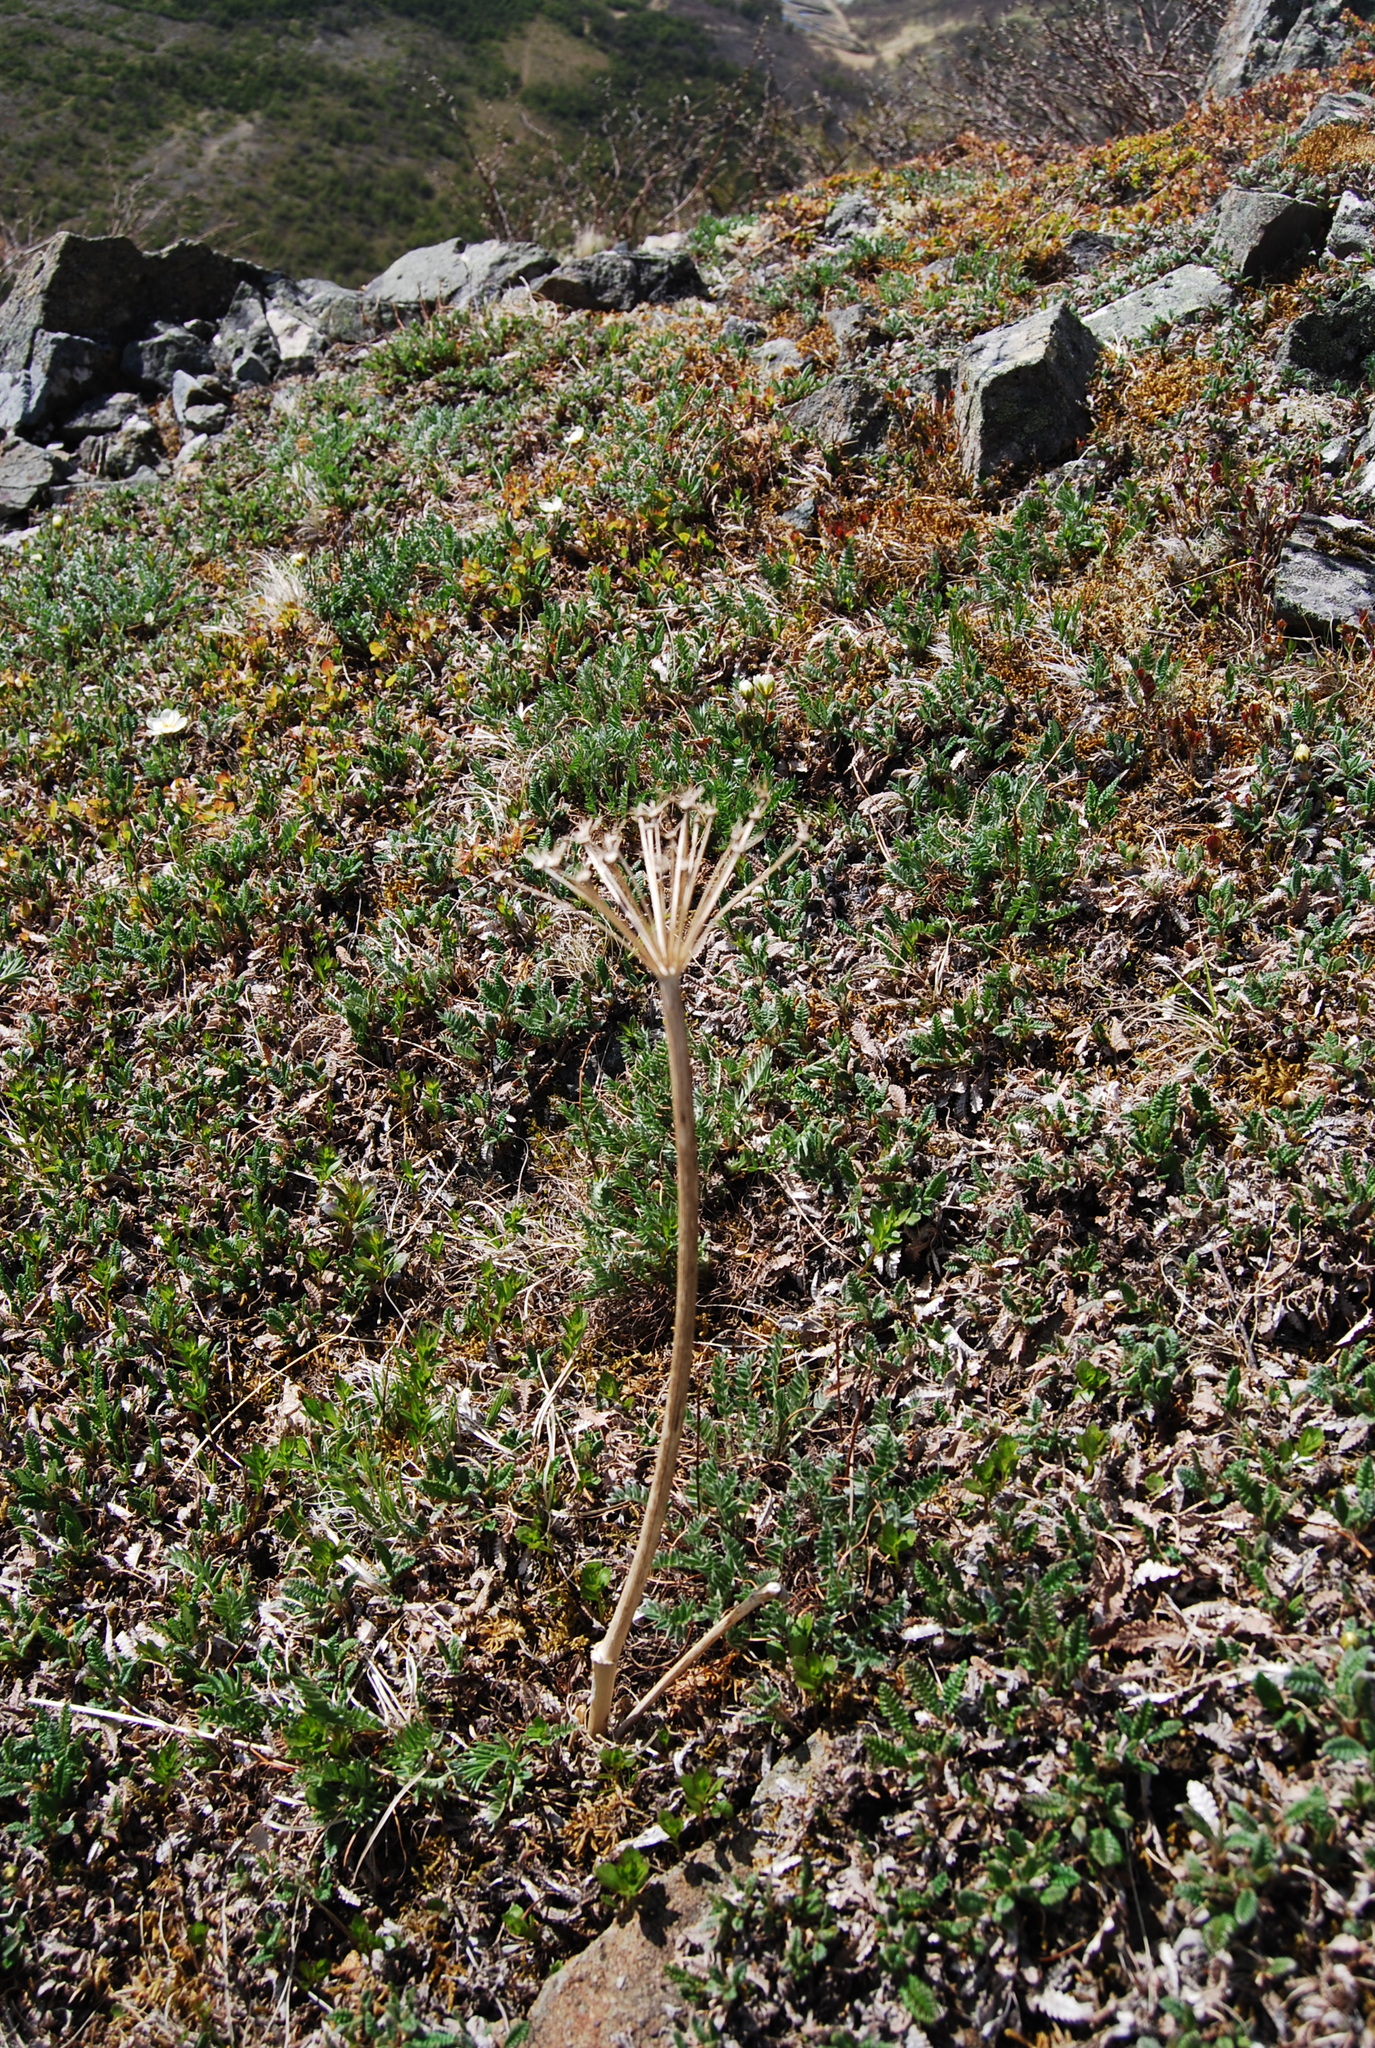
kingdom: Plantae
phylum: Tracheophyta
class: Magnoliopsida
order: Apiales
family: Apiaceae
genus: Magadania
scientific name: Magadania olaensis
